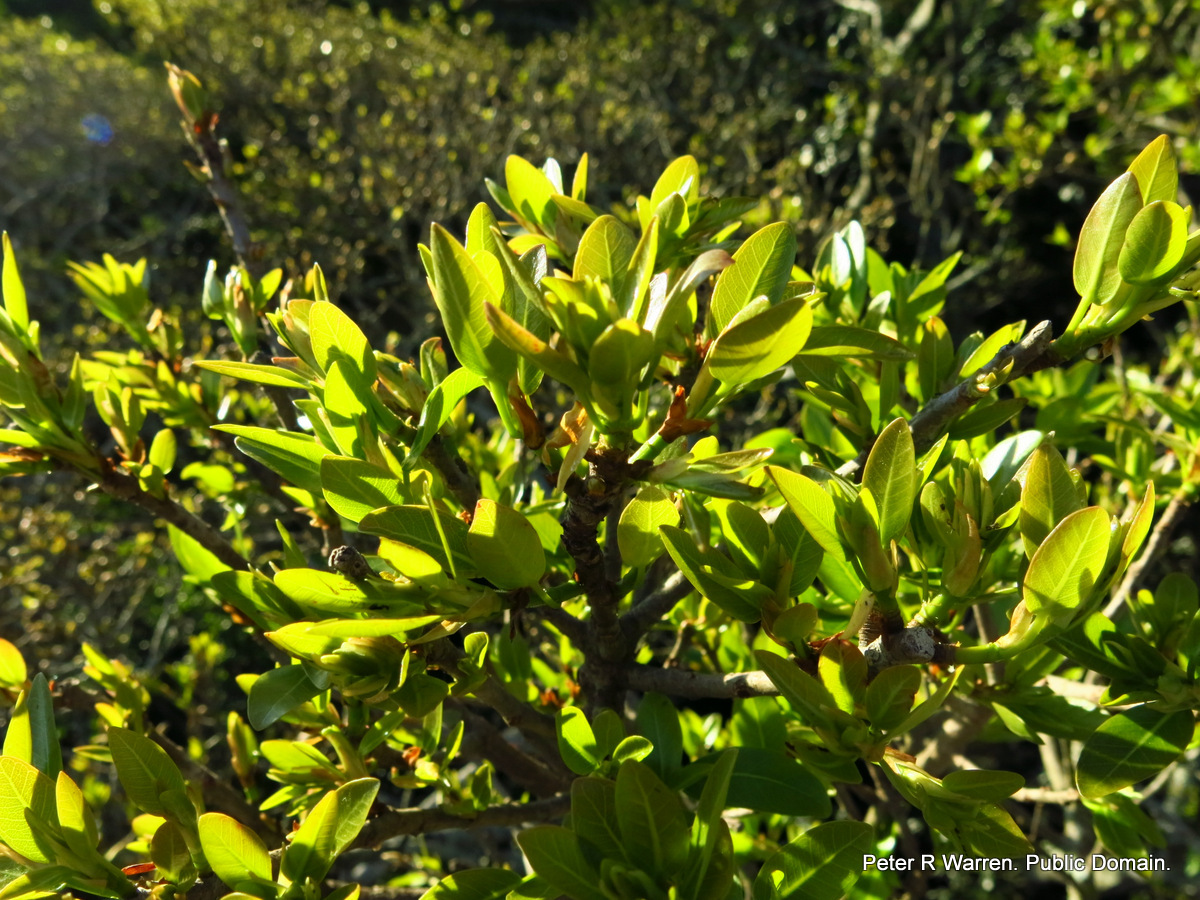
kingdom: Plantae
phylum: Tracheophyta
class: Magnoliopsida
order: Rosales
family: Moraceae
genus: Ficus
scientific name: Ficus thonningii
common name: Fig
